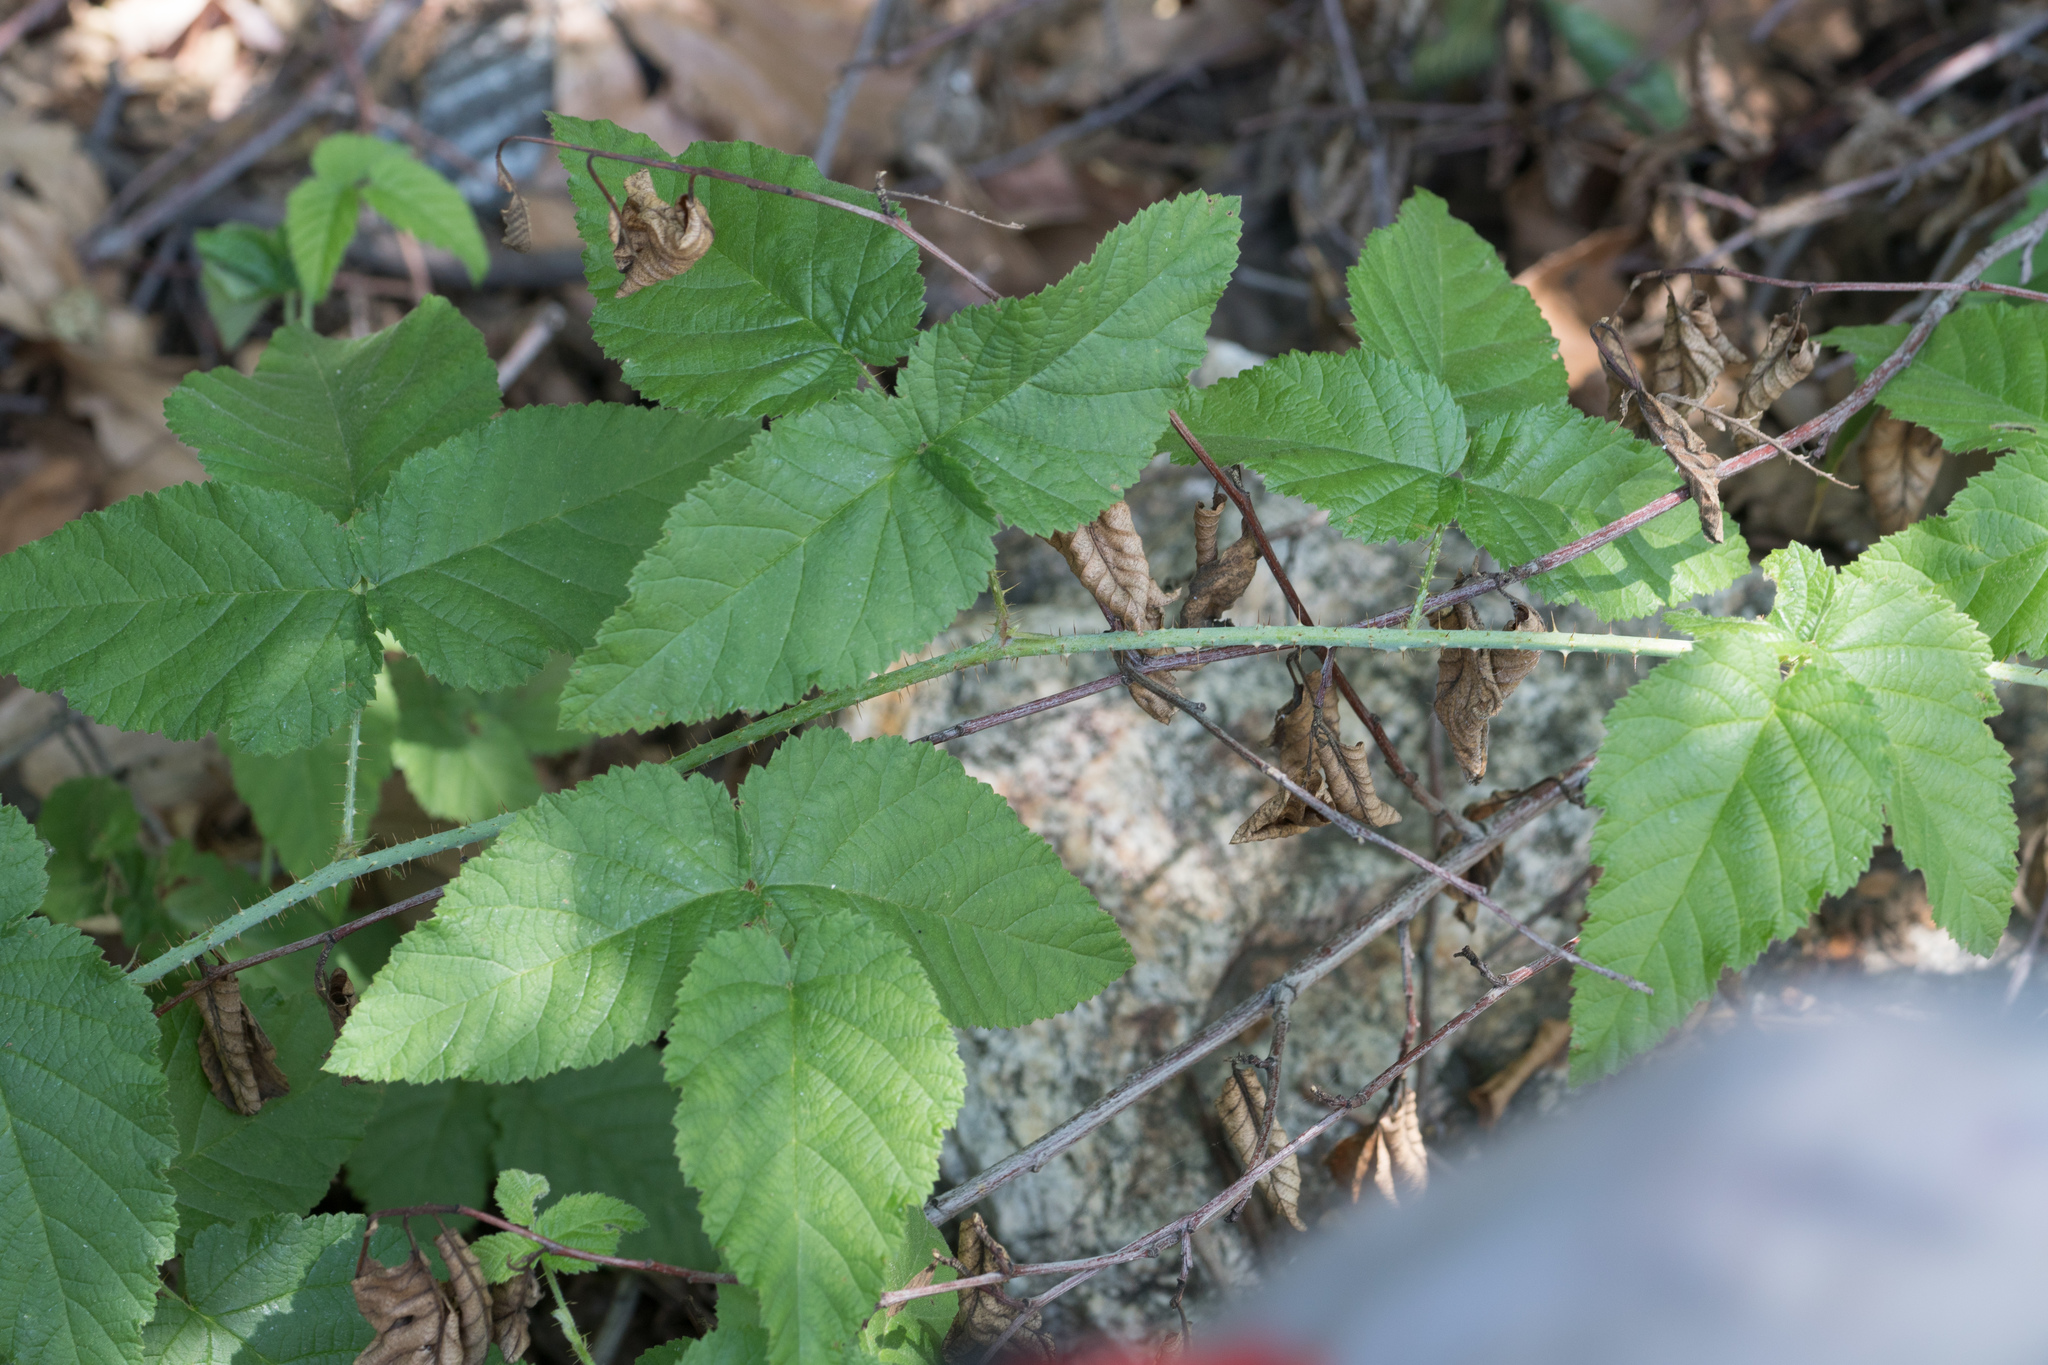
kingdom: Plantae
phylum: Tracheophyta
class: Magnoliopsida
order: Rosales
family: Rosaceae
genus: Rubus
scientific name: Rubus ursinus
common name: Pacific blackberry
